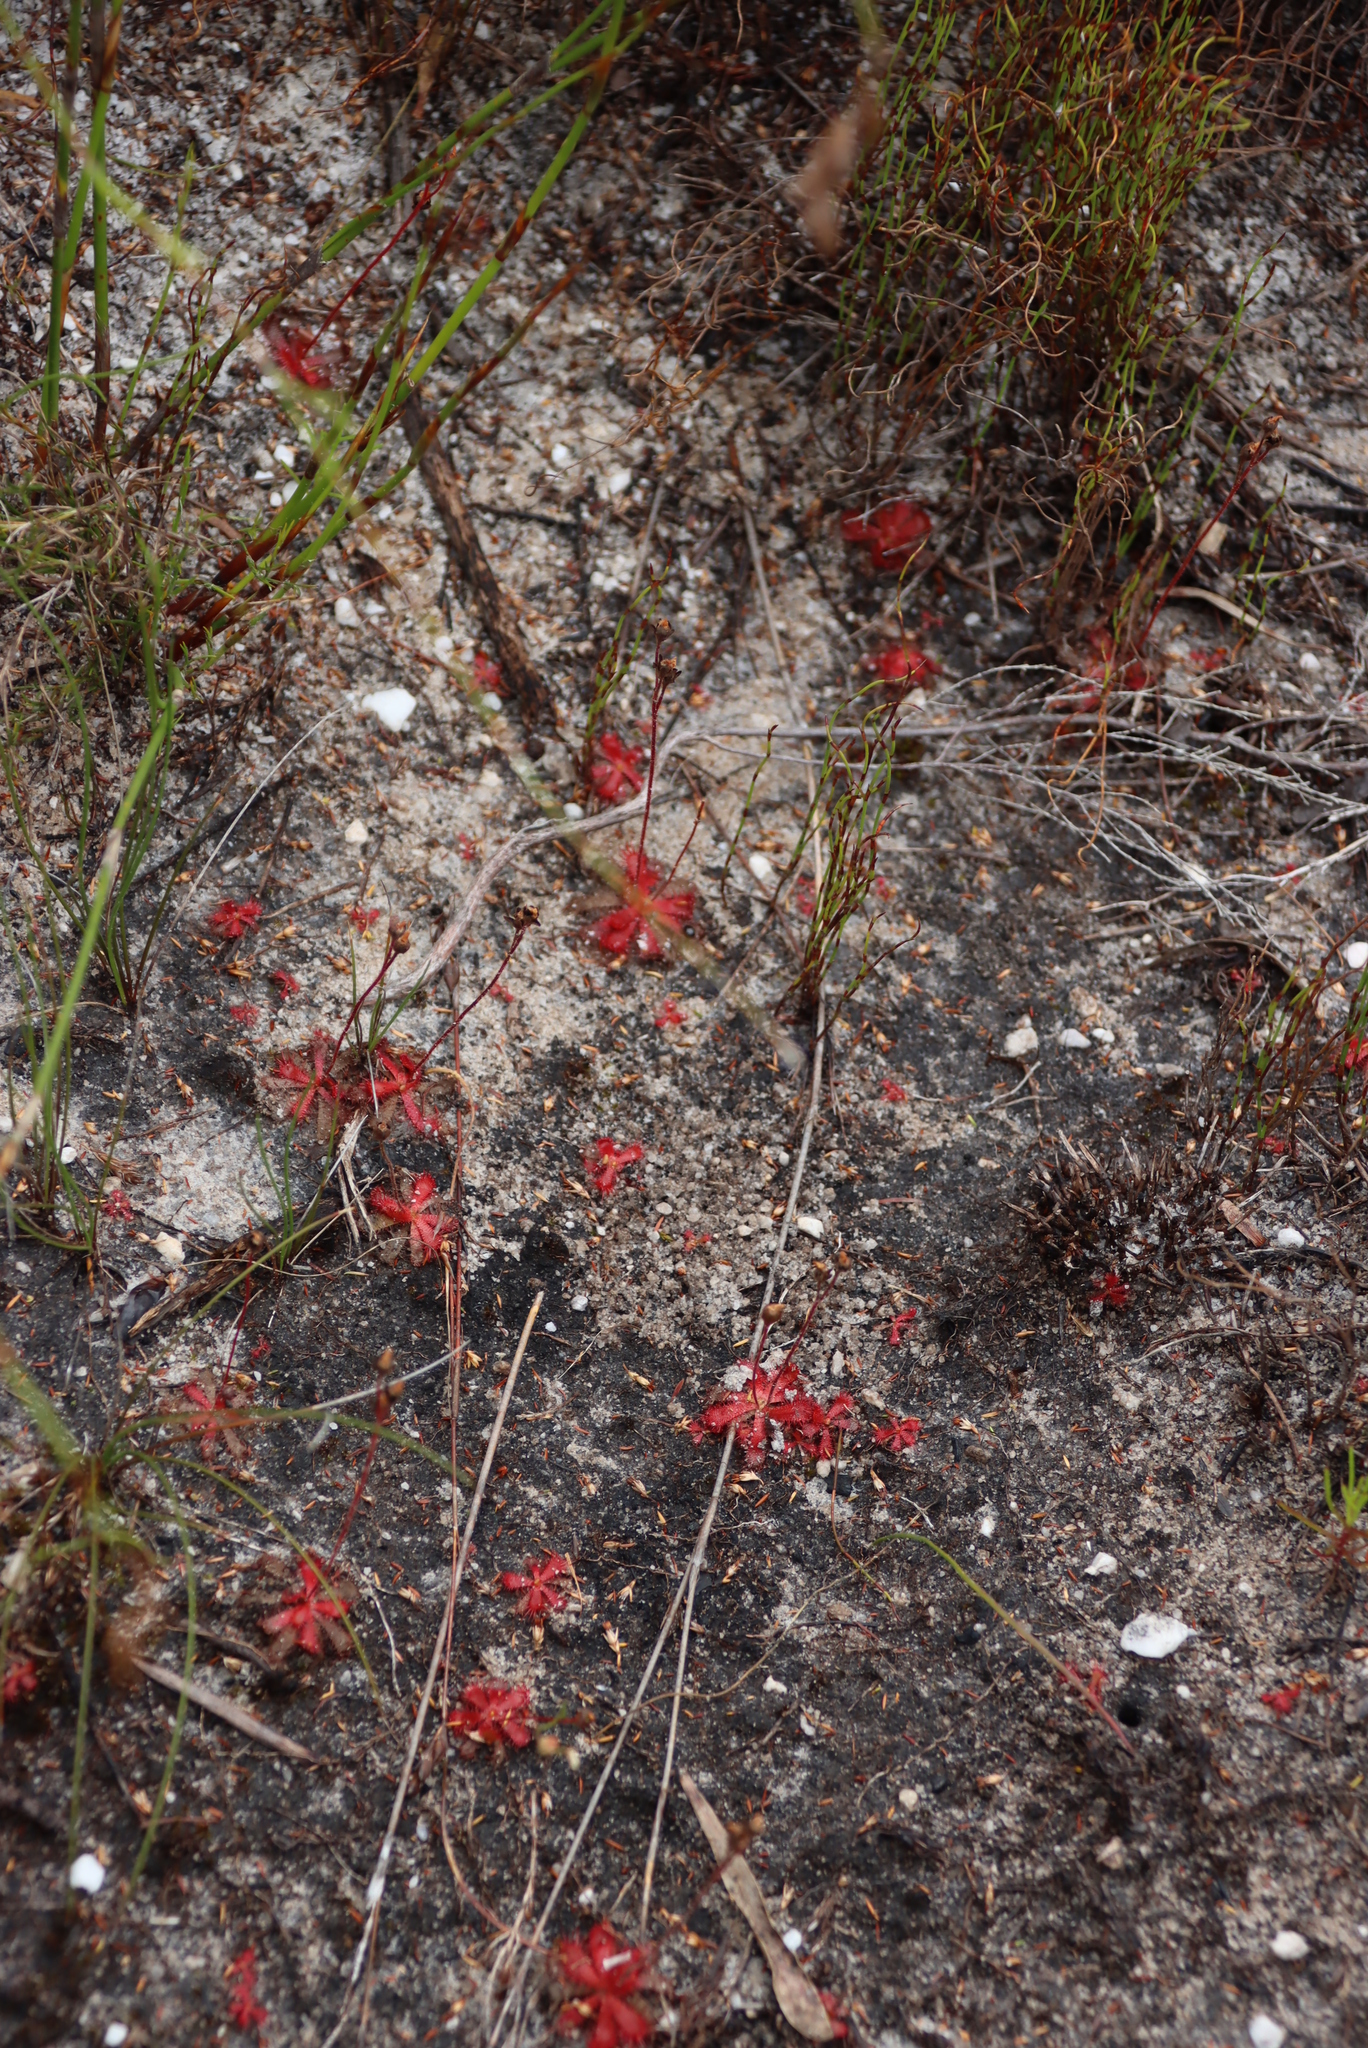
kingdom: Plantae
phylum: Tracheophyta
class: Magnoliopsida
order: Caryophyllales
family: Droseraceae
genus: Drosera
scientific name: Drosera trinervia
